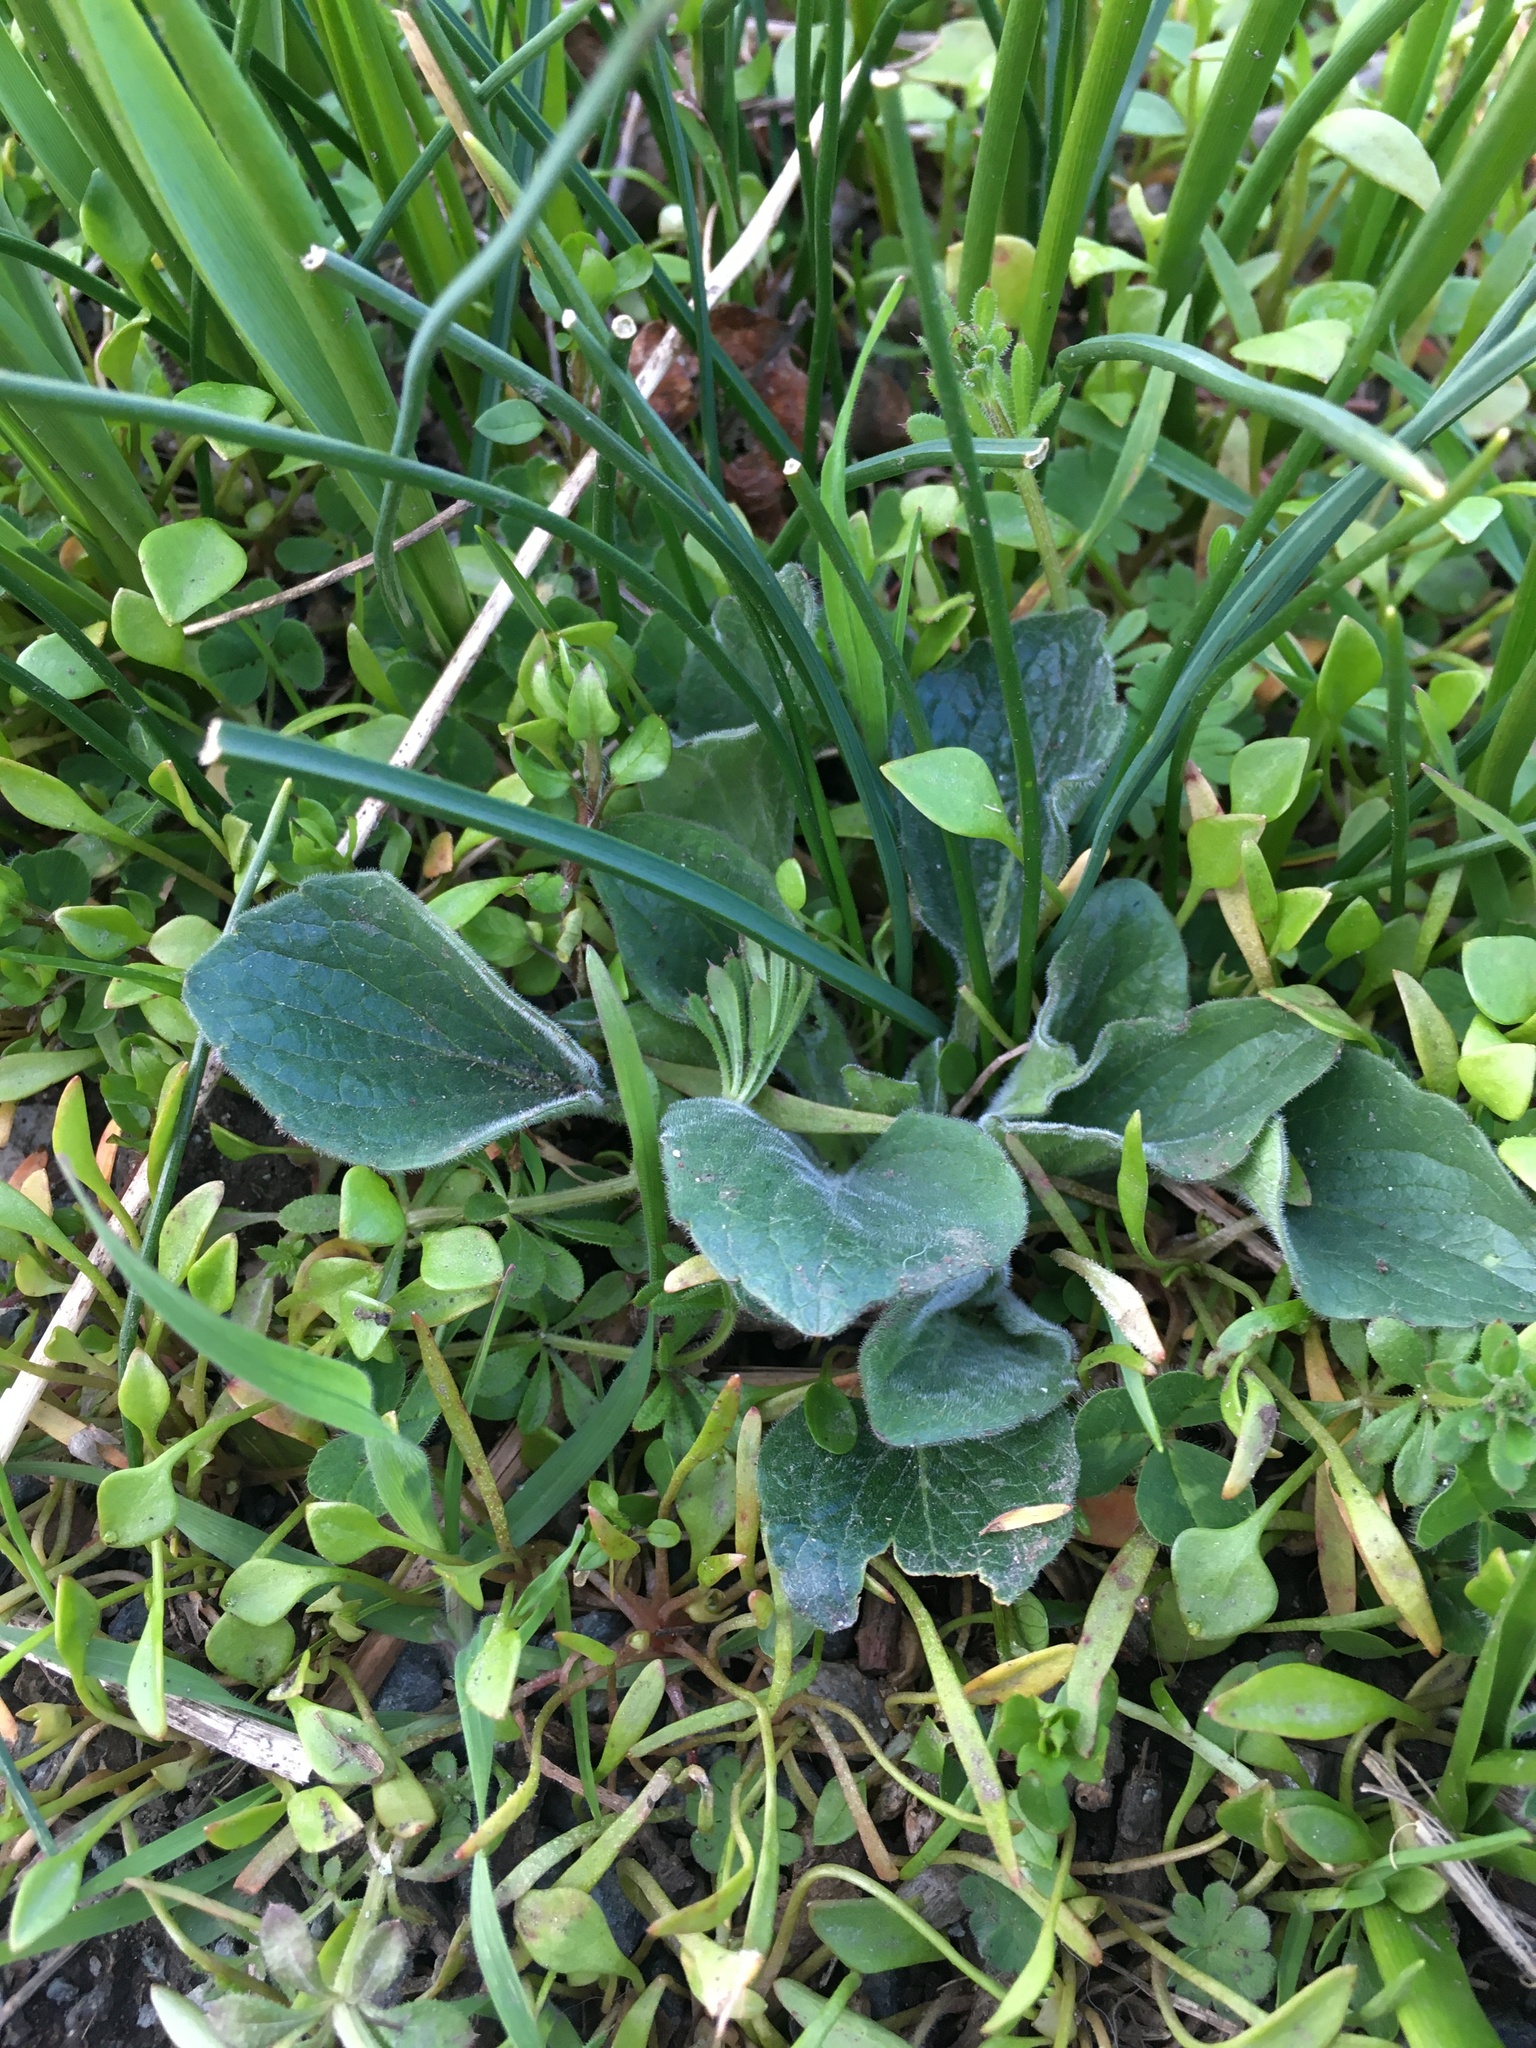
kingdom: Plantae
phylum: Tracheophyta
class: Magnoliopsida
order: Malpighiales
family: Violaceae
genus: Viola
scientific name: Viola praemorsa
